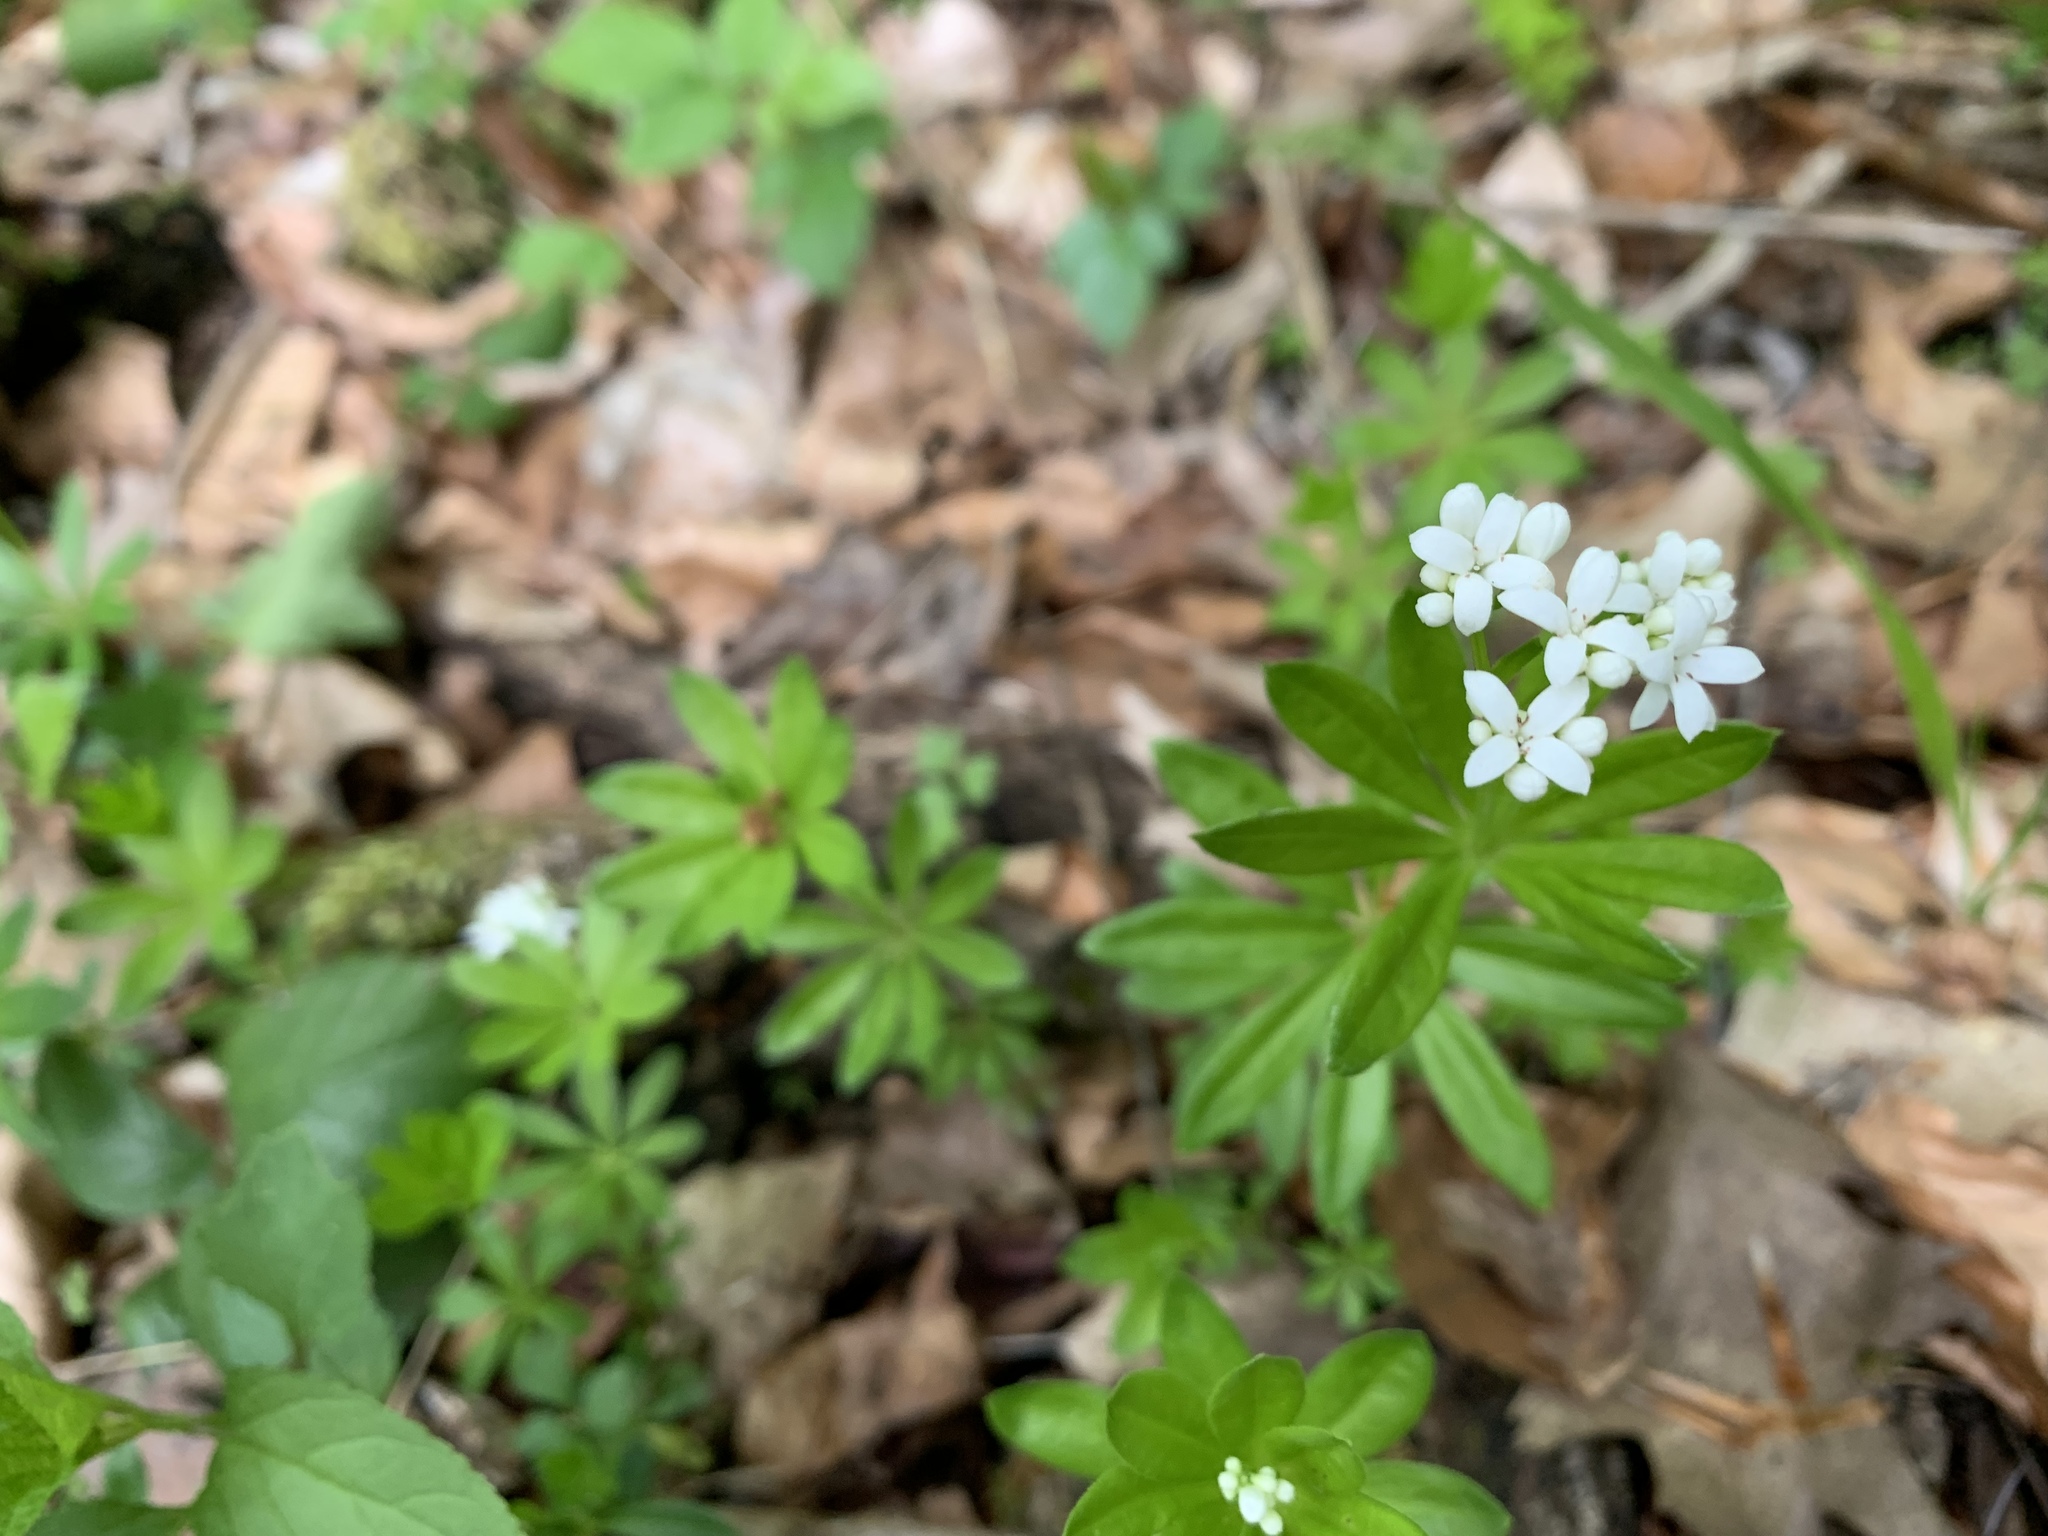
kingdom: Plantae
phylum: Tracheophyta
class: Magnoliopsida
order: Gentianales
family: Rubiaceae
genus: Galium
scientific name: Galium odoratum
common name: Sweet woodruff
